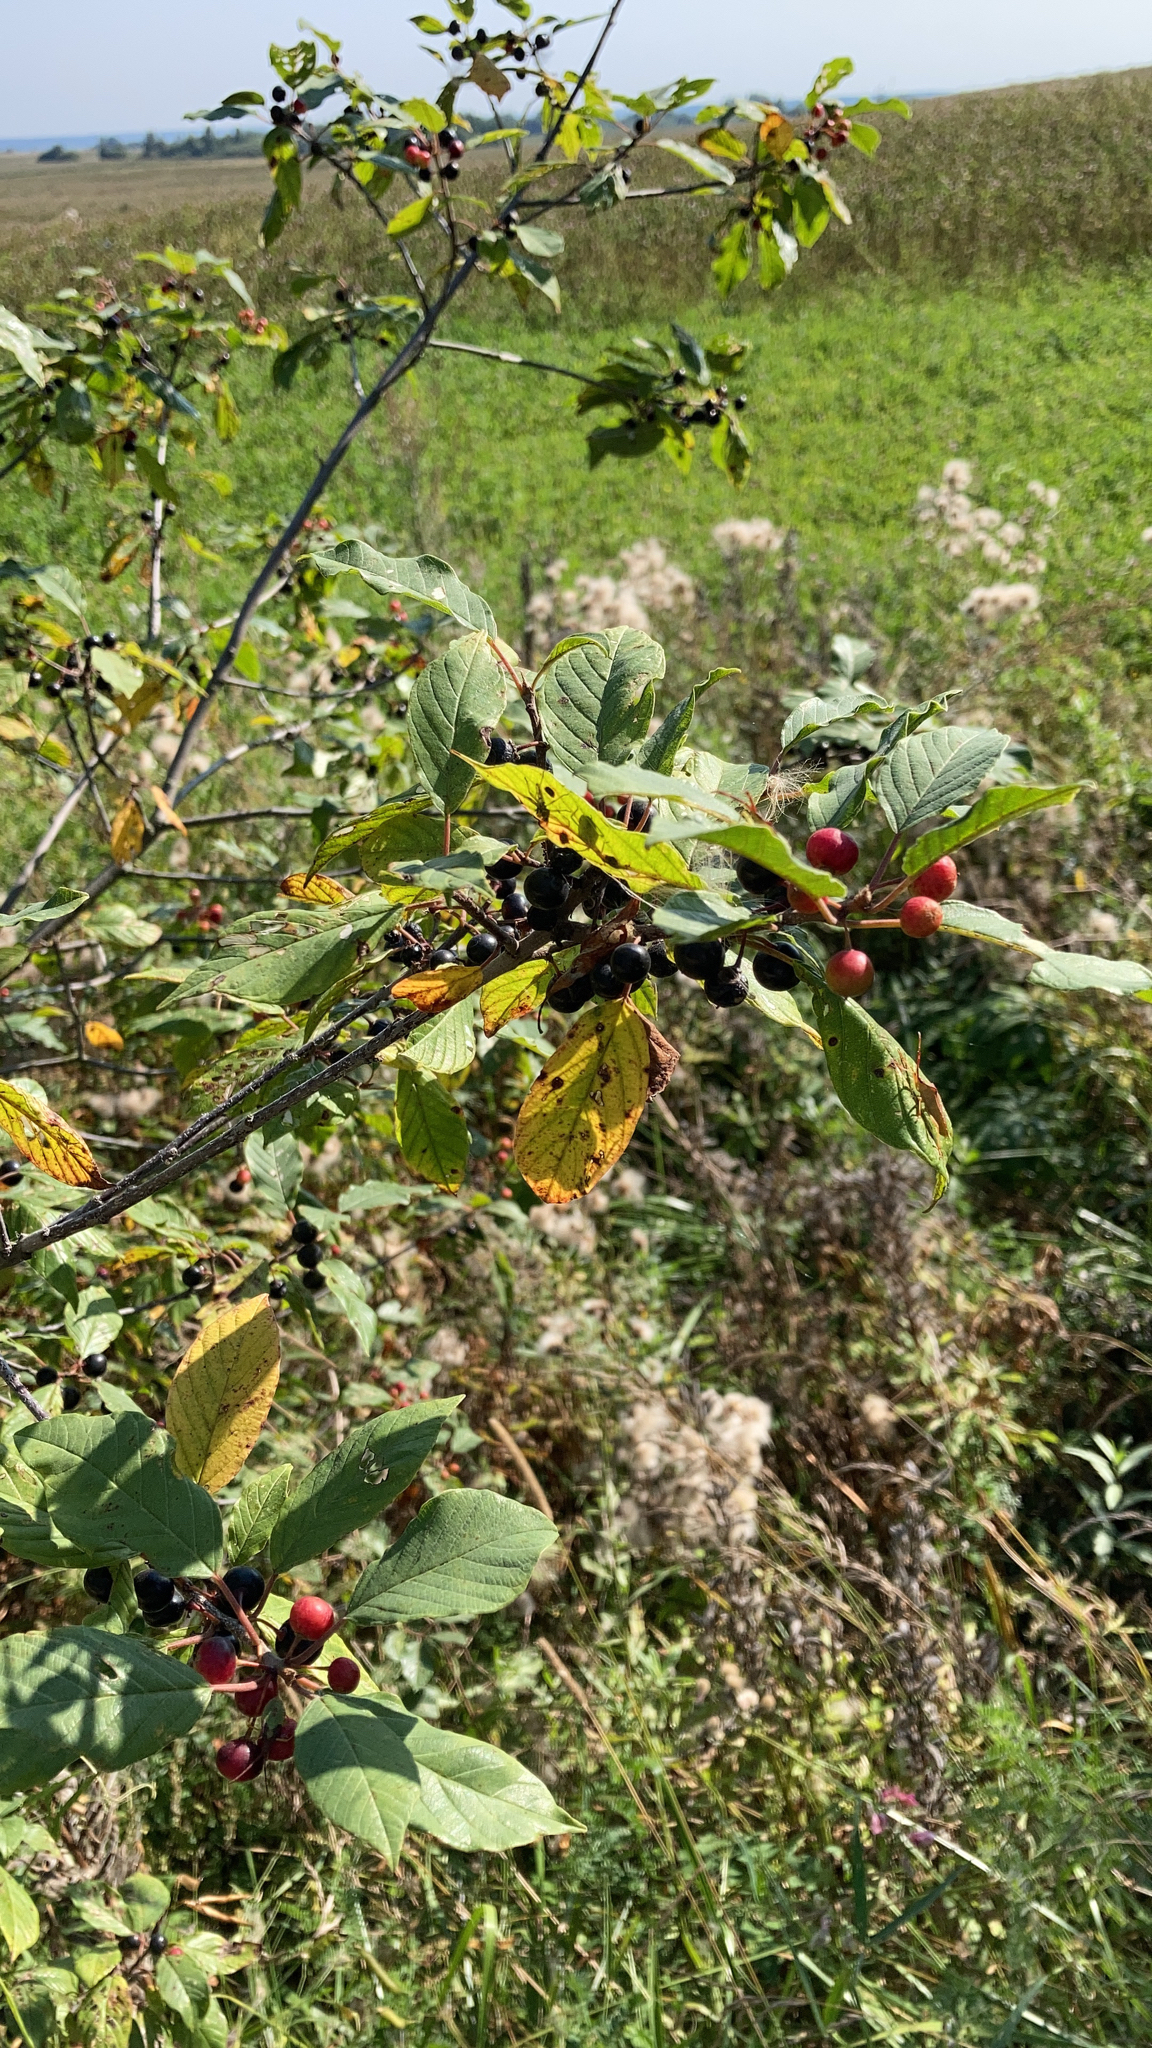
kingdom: Plantae
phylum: Tracheophyta
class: Magnoliopsida
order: Rosales
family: Rhamnaceae
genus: Frangula
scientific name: Frangula alnus
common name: Alder buckthorn
